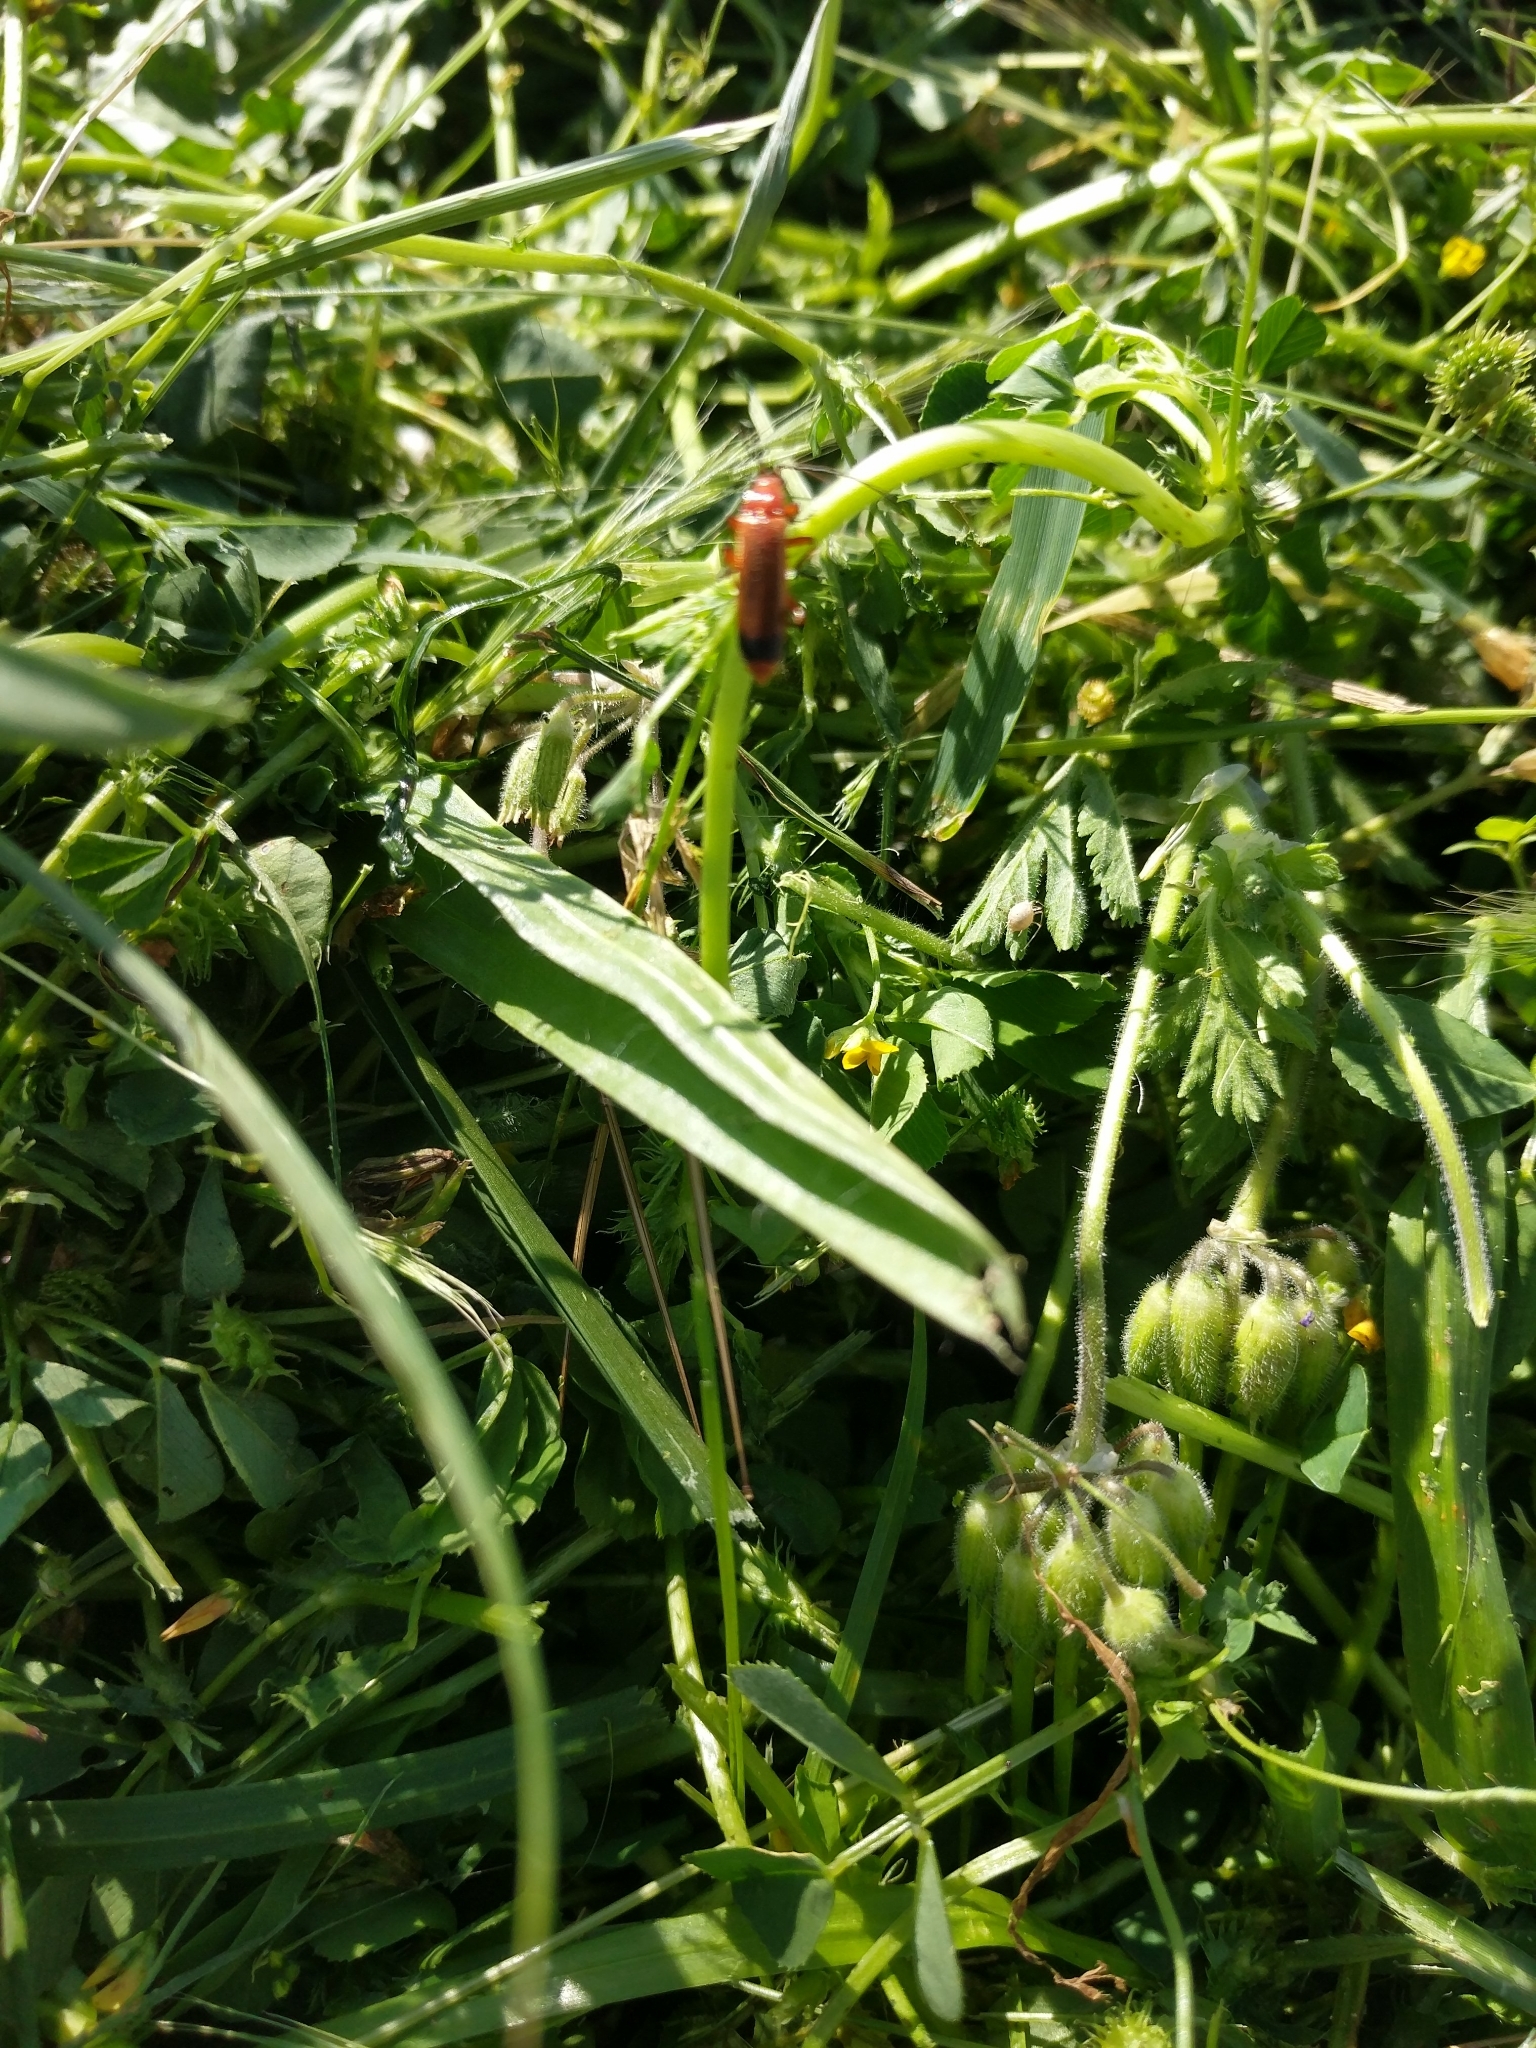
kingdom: Animalia
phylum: Arthropoda
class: Insecta
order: Coleoptera
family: Cantharidae
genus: Rhagonycha
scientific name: Rhagonycha fulva
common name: Common red soldier beetle
